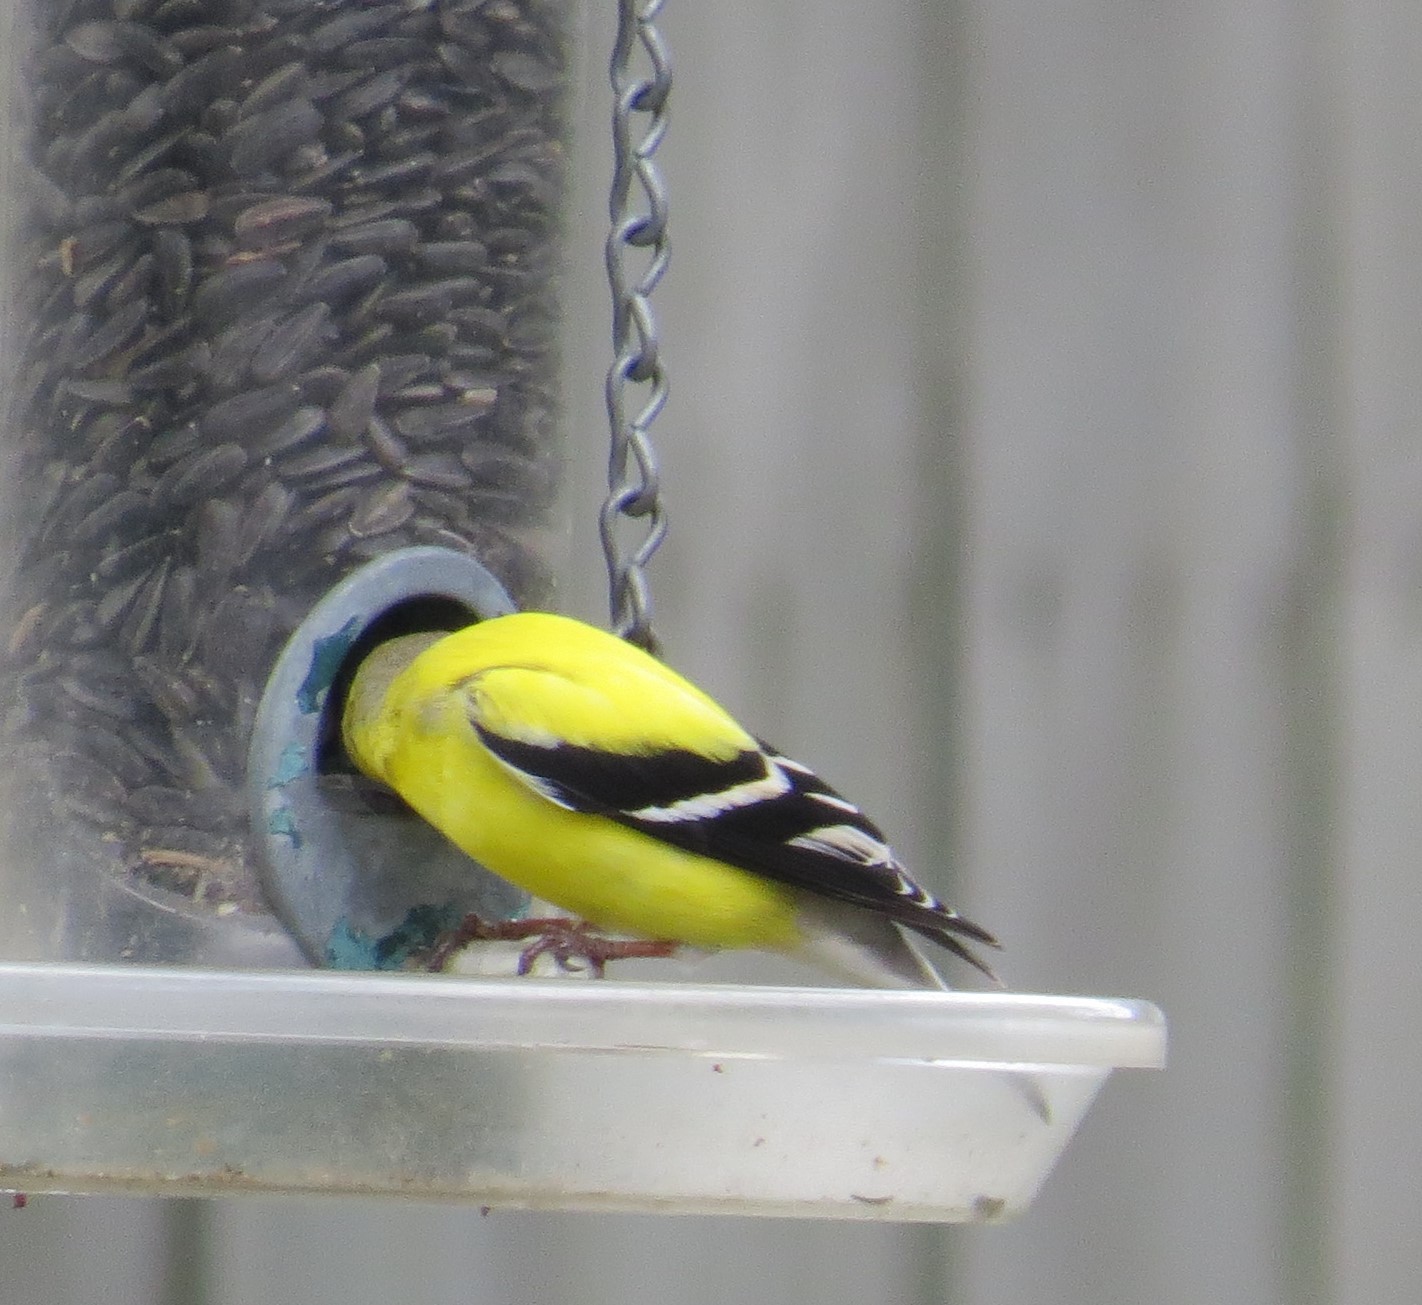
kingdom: Animalia
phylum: Chordata
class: Aves
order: Passeriformes
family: Fringillidae
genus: Spinus
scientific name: Spinus tristis
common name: American goldfinch
